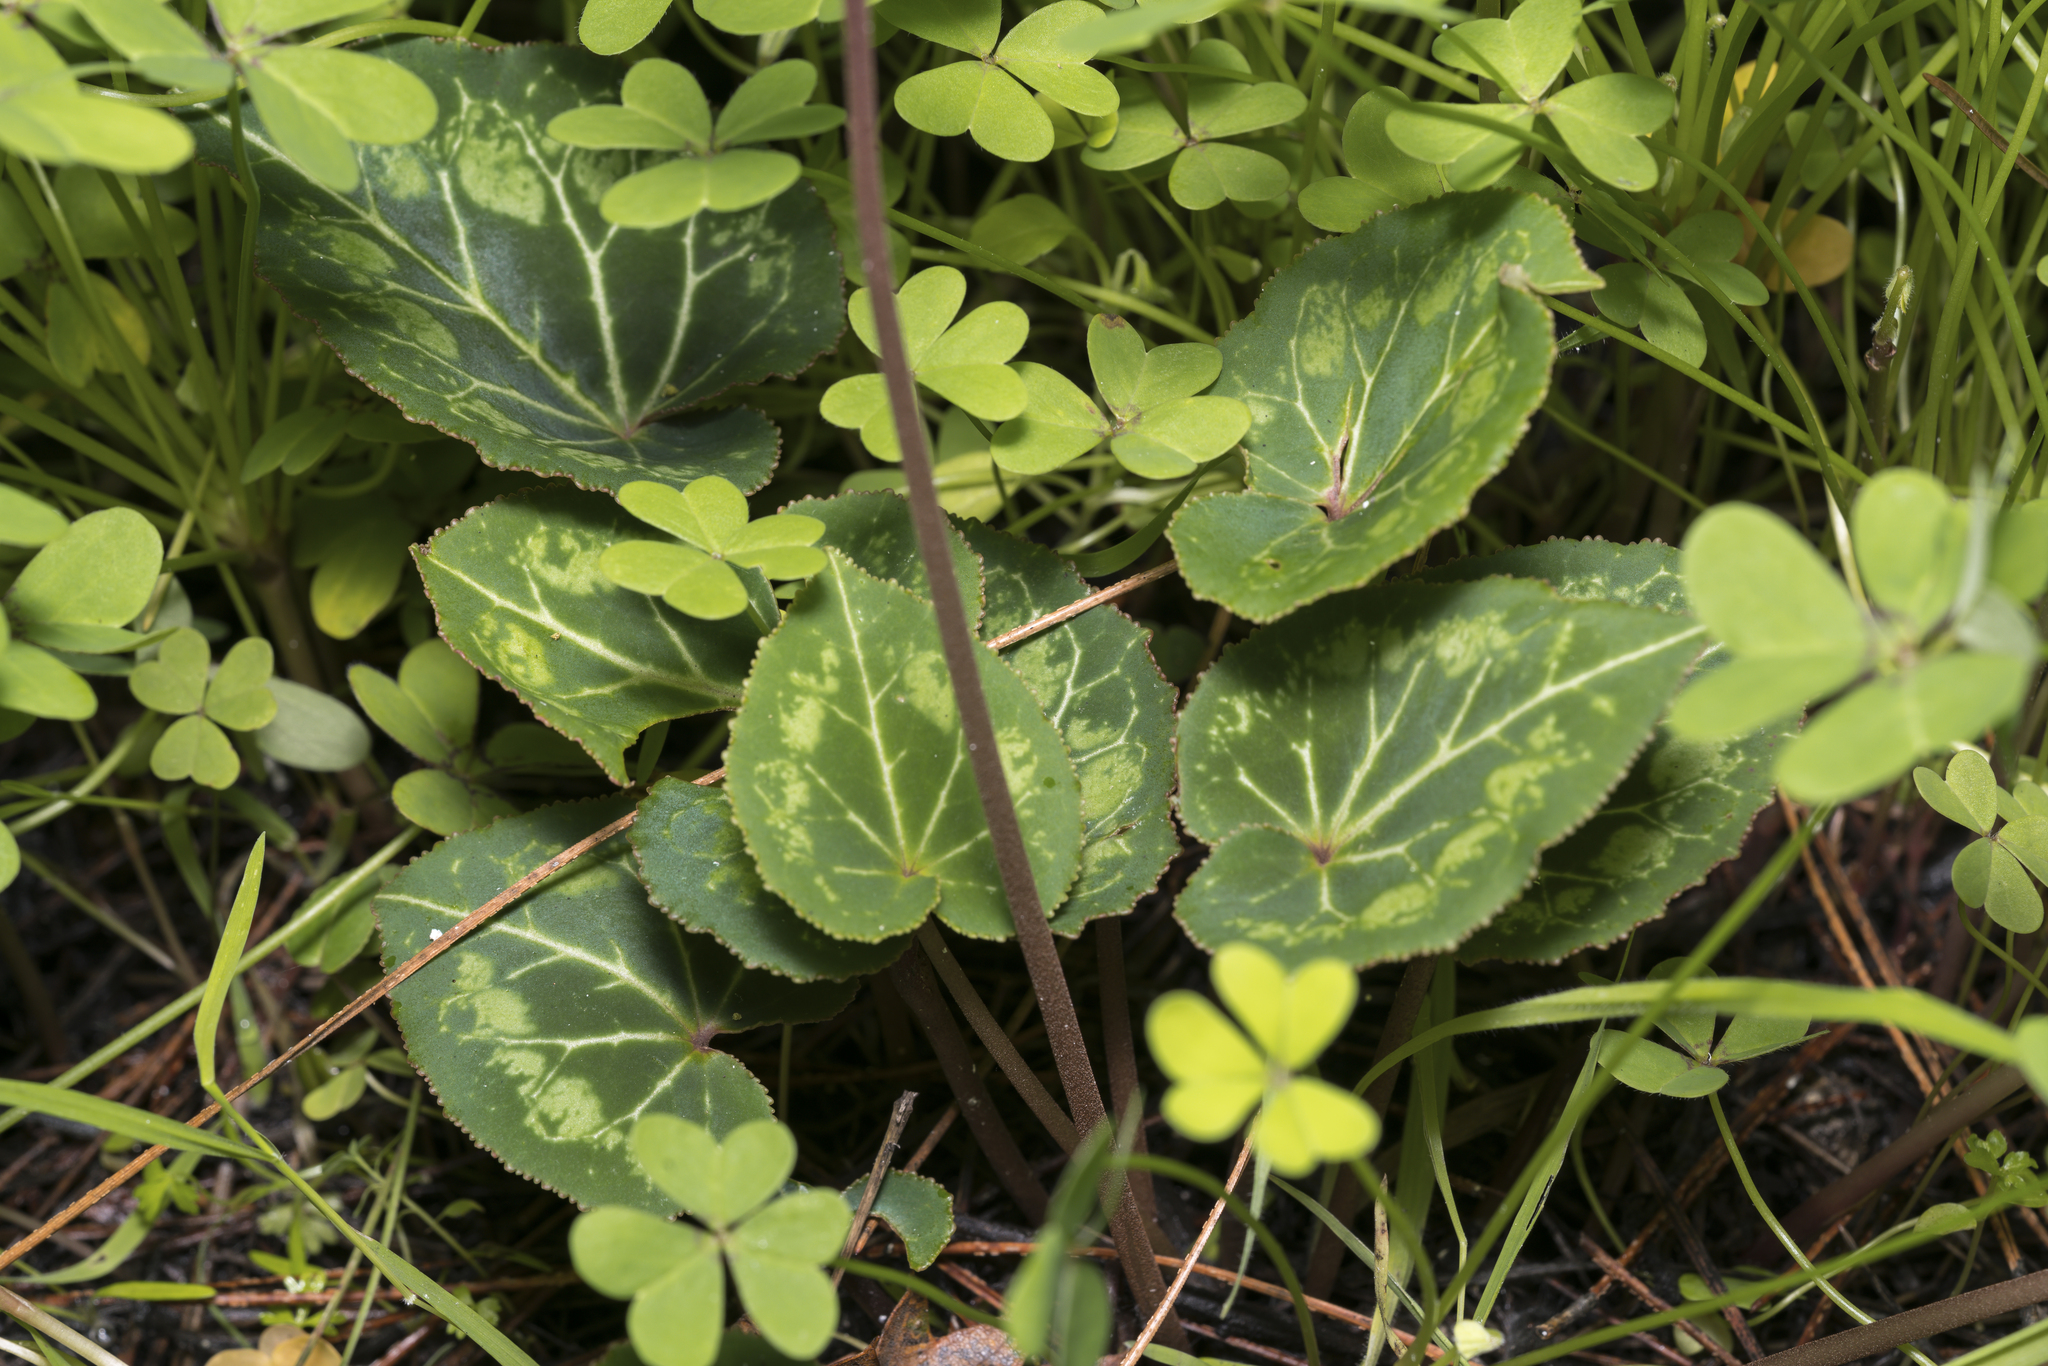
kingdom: Plantae
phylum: Tracheophyta
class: Magnoliopsida
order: Ericales
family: Primulaceae
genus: Cyclamen
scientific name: Cyclamen persicum
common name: Florist's cyclamen
